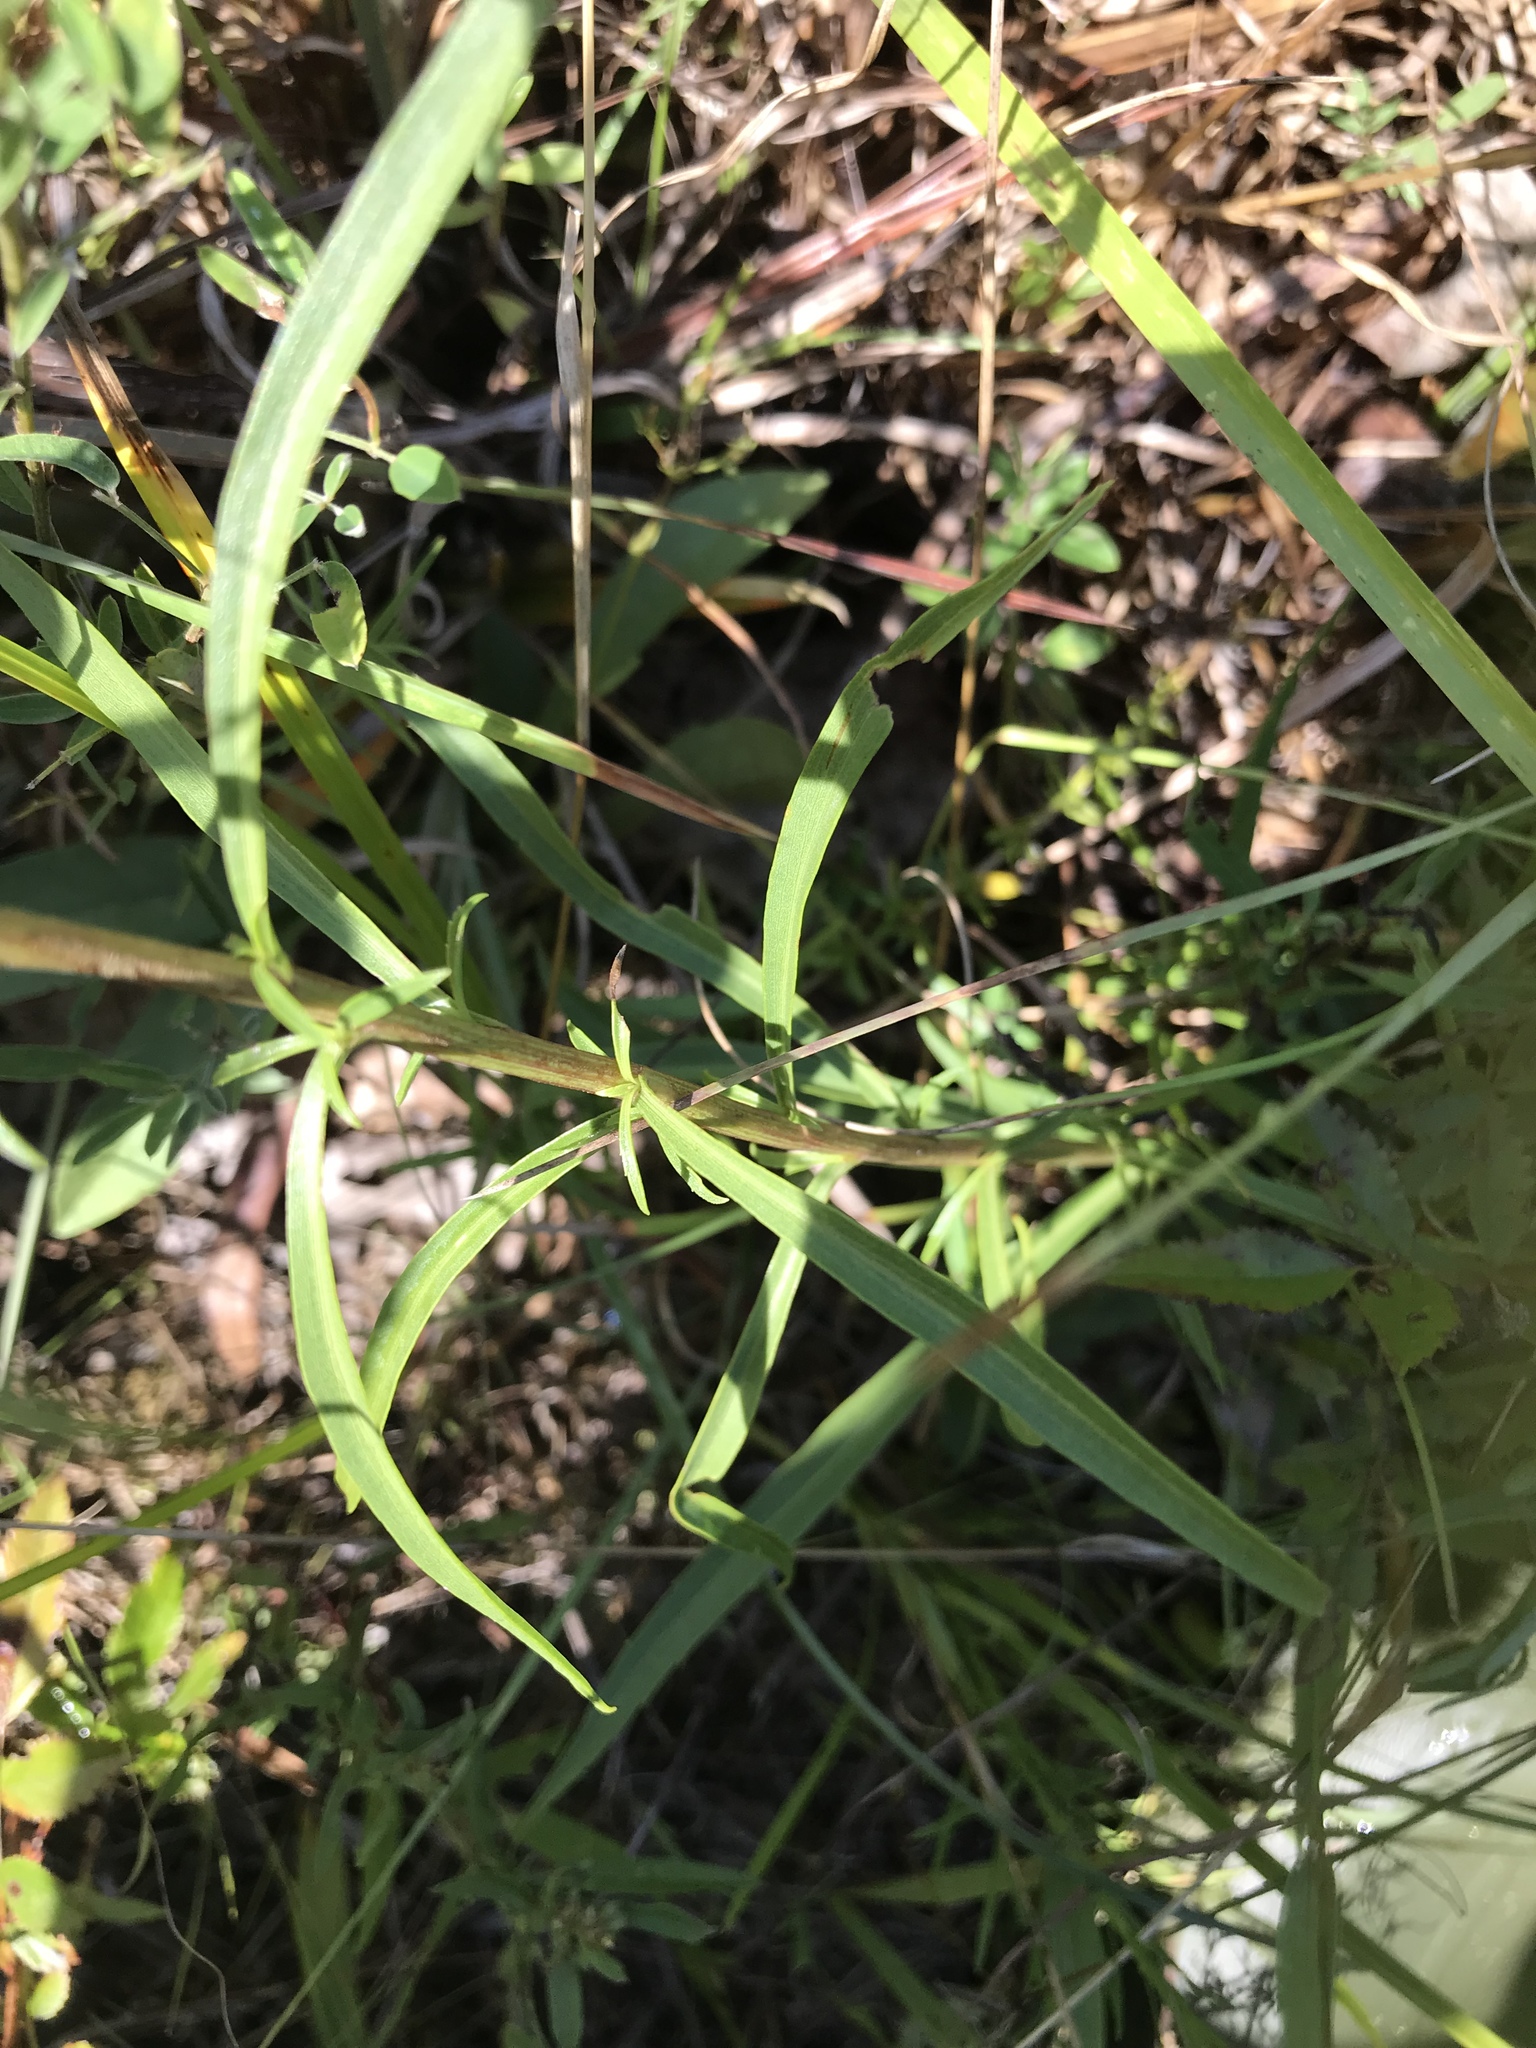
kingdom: Plantae
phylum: Tracheophyta
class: Magnoliopsida
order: Asterales
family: Asteraceae
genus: Solidago
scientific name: Solidago pinetorum
